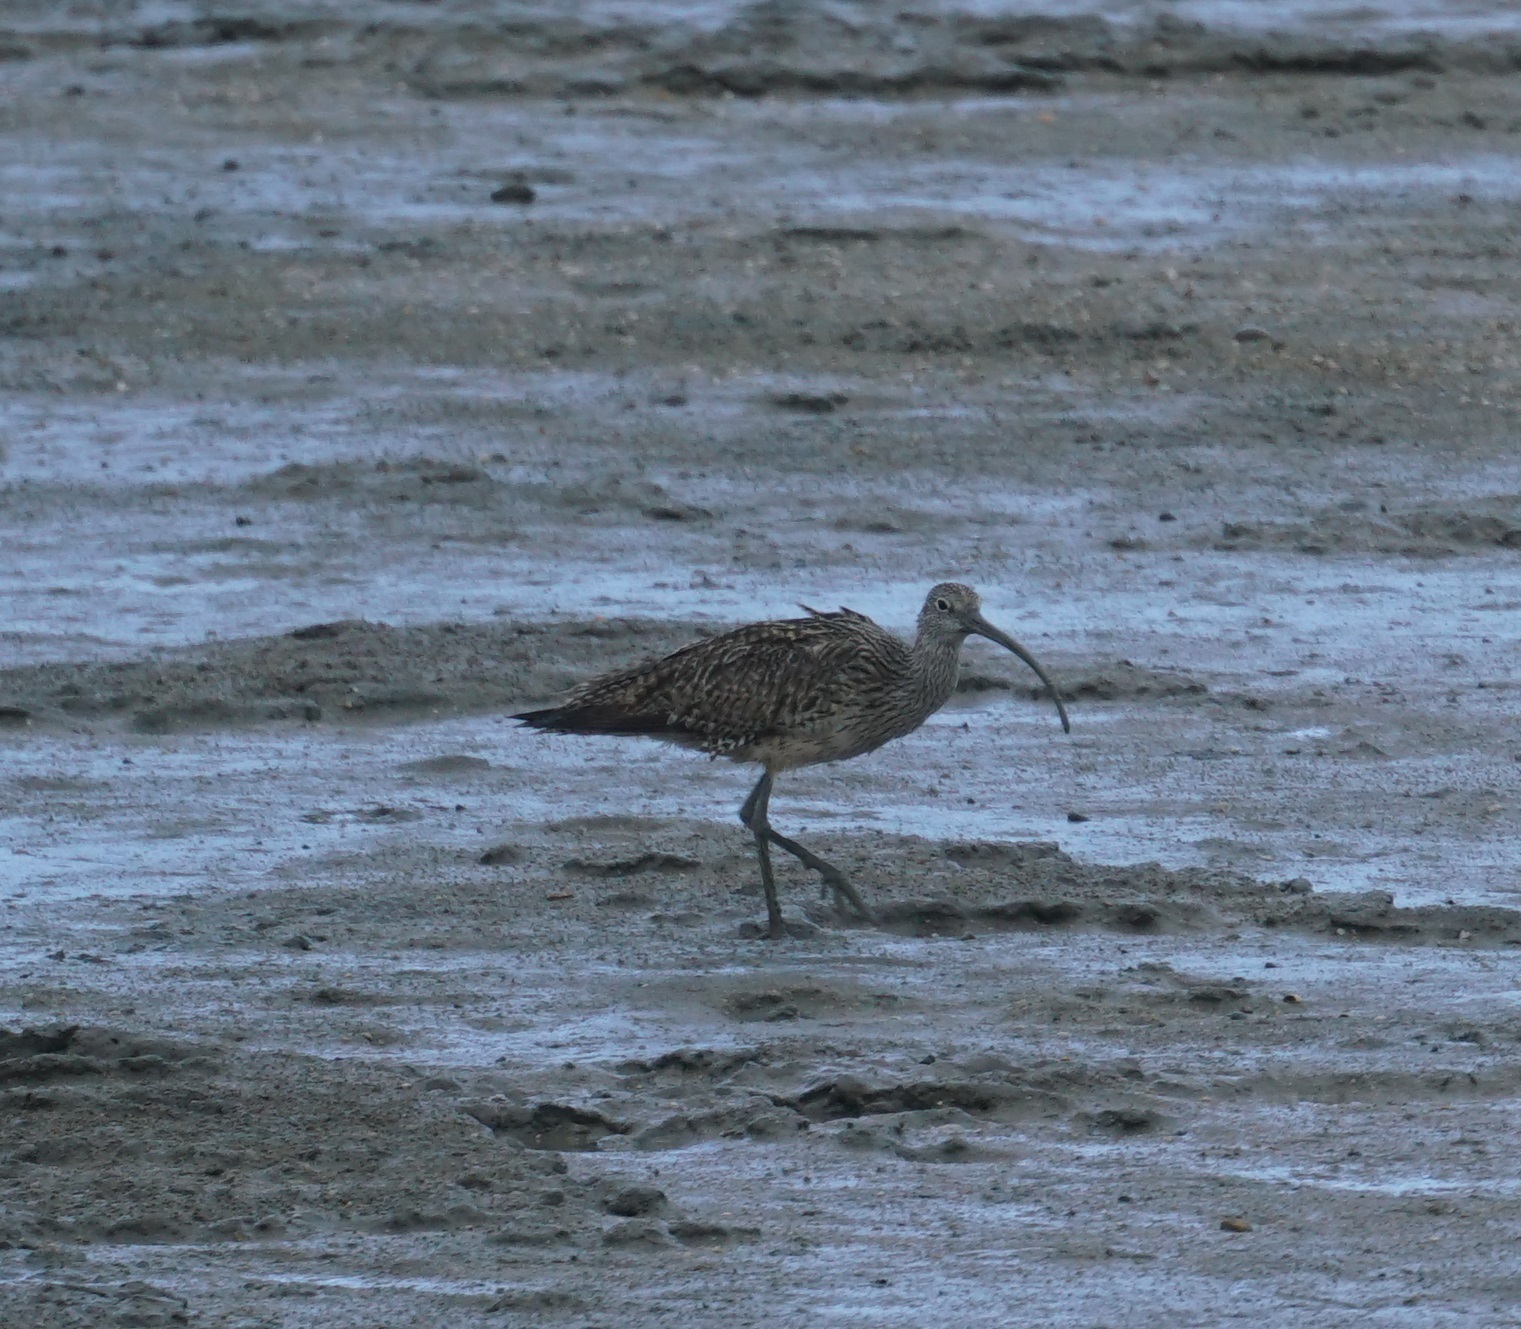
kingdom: Animalia
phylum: Chordata
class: Aves
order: Charadriiformes
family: Scolopacidae
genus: Numenius
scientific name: Numenius madagascariensis
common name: Far eastern curlew
